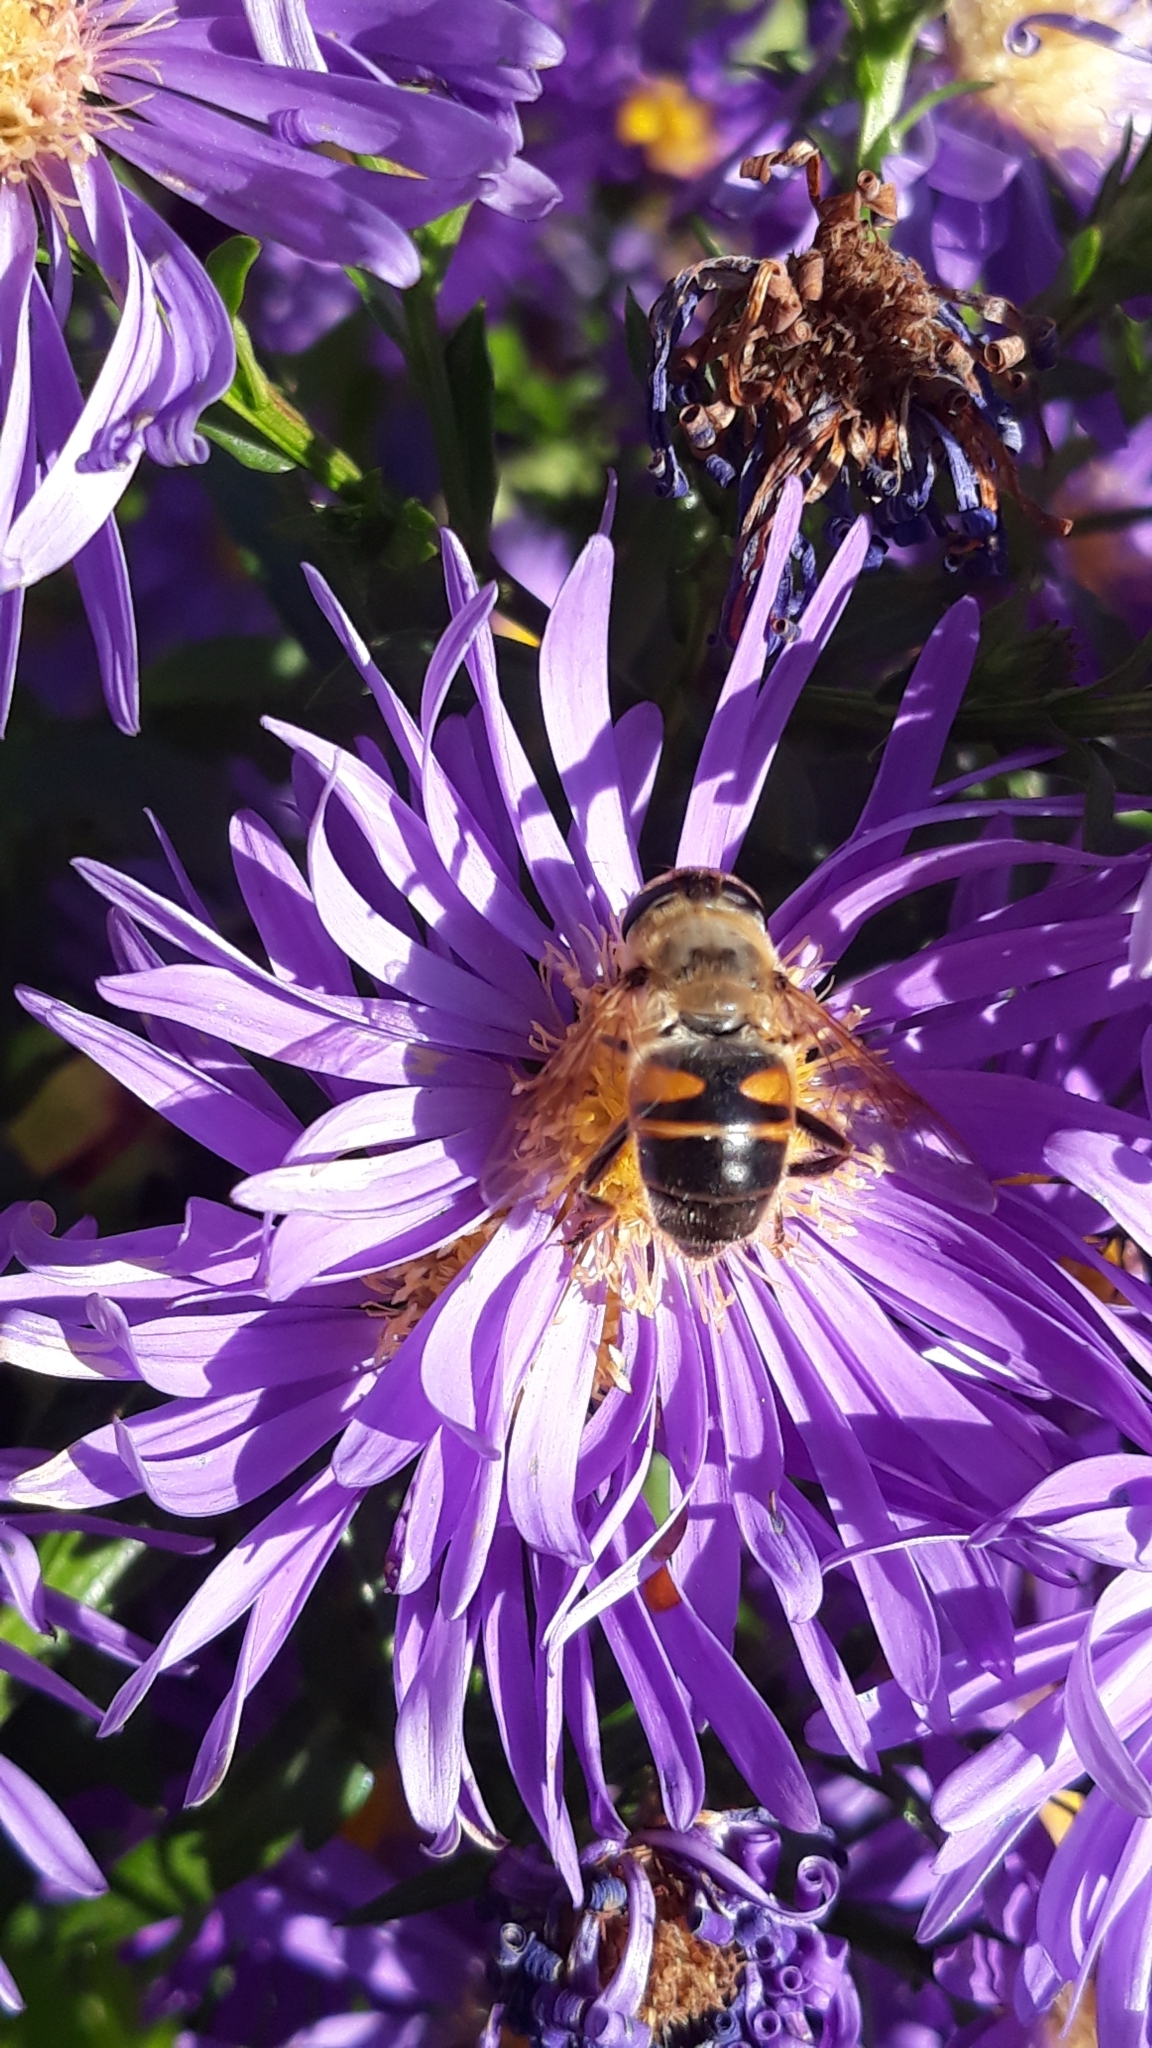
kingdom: Animalia
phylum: Arthropoda
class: Insecta
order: Diptera
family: Syrphidae
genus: Eristalis
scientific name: Eristalis tenax
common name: Drone fly
